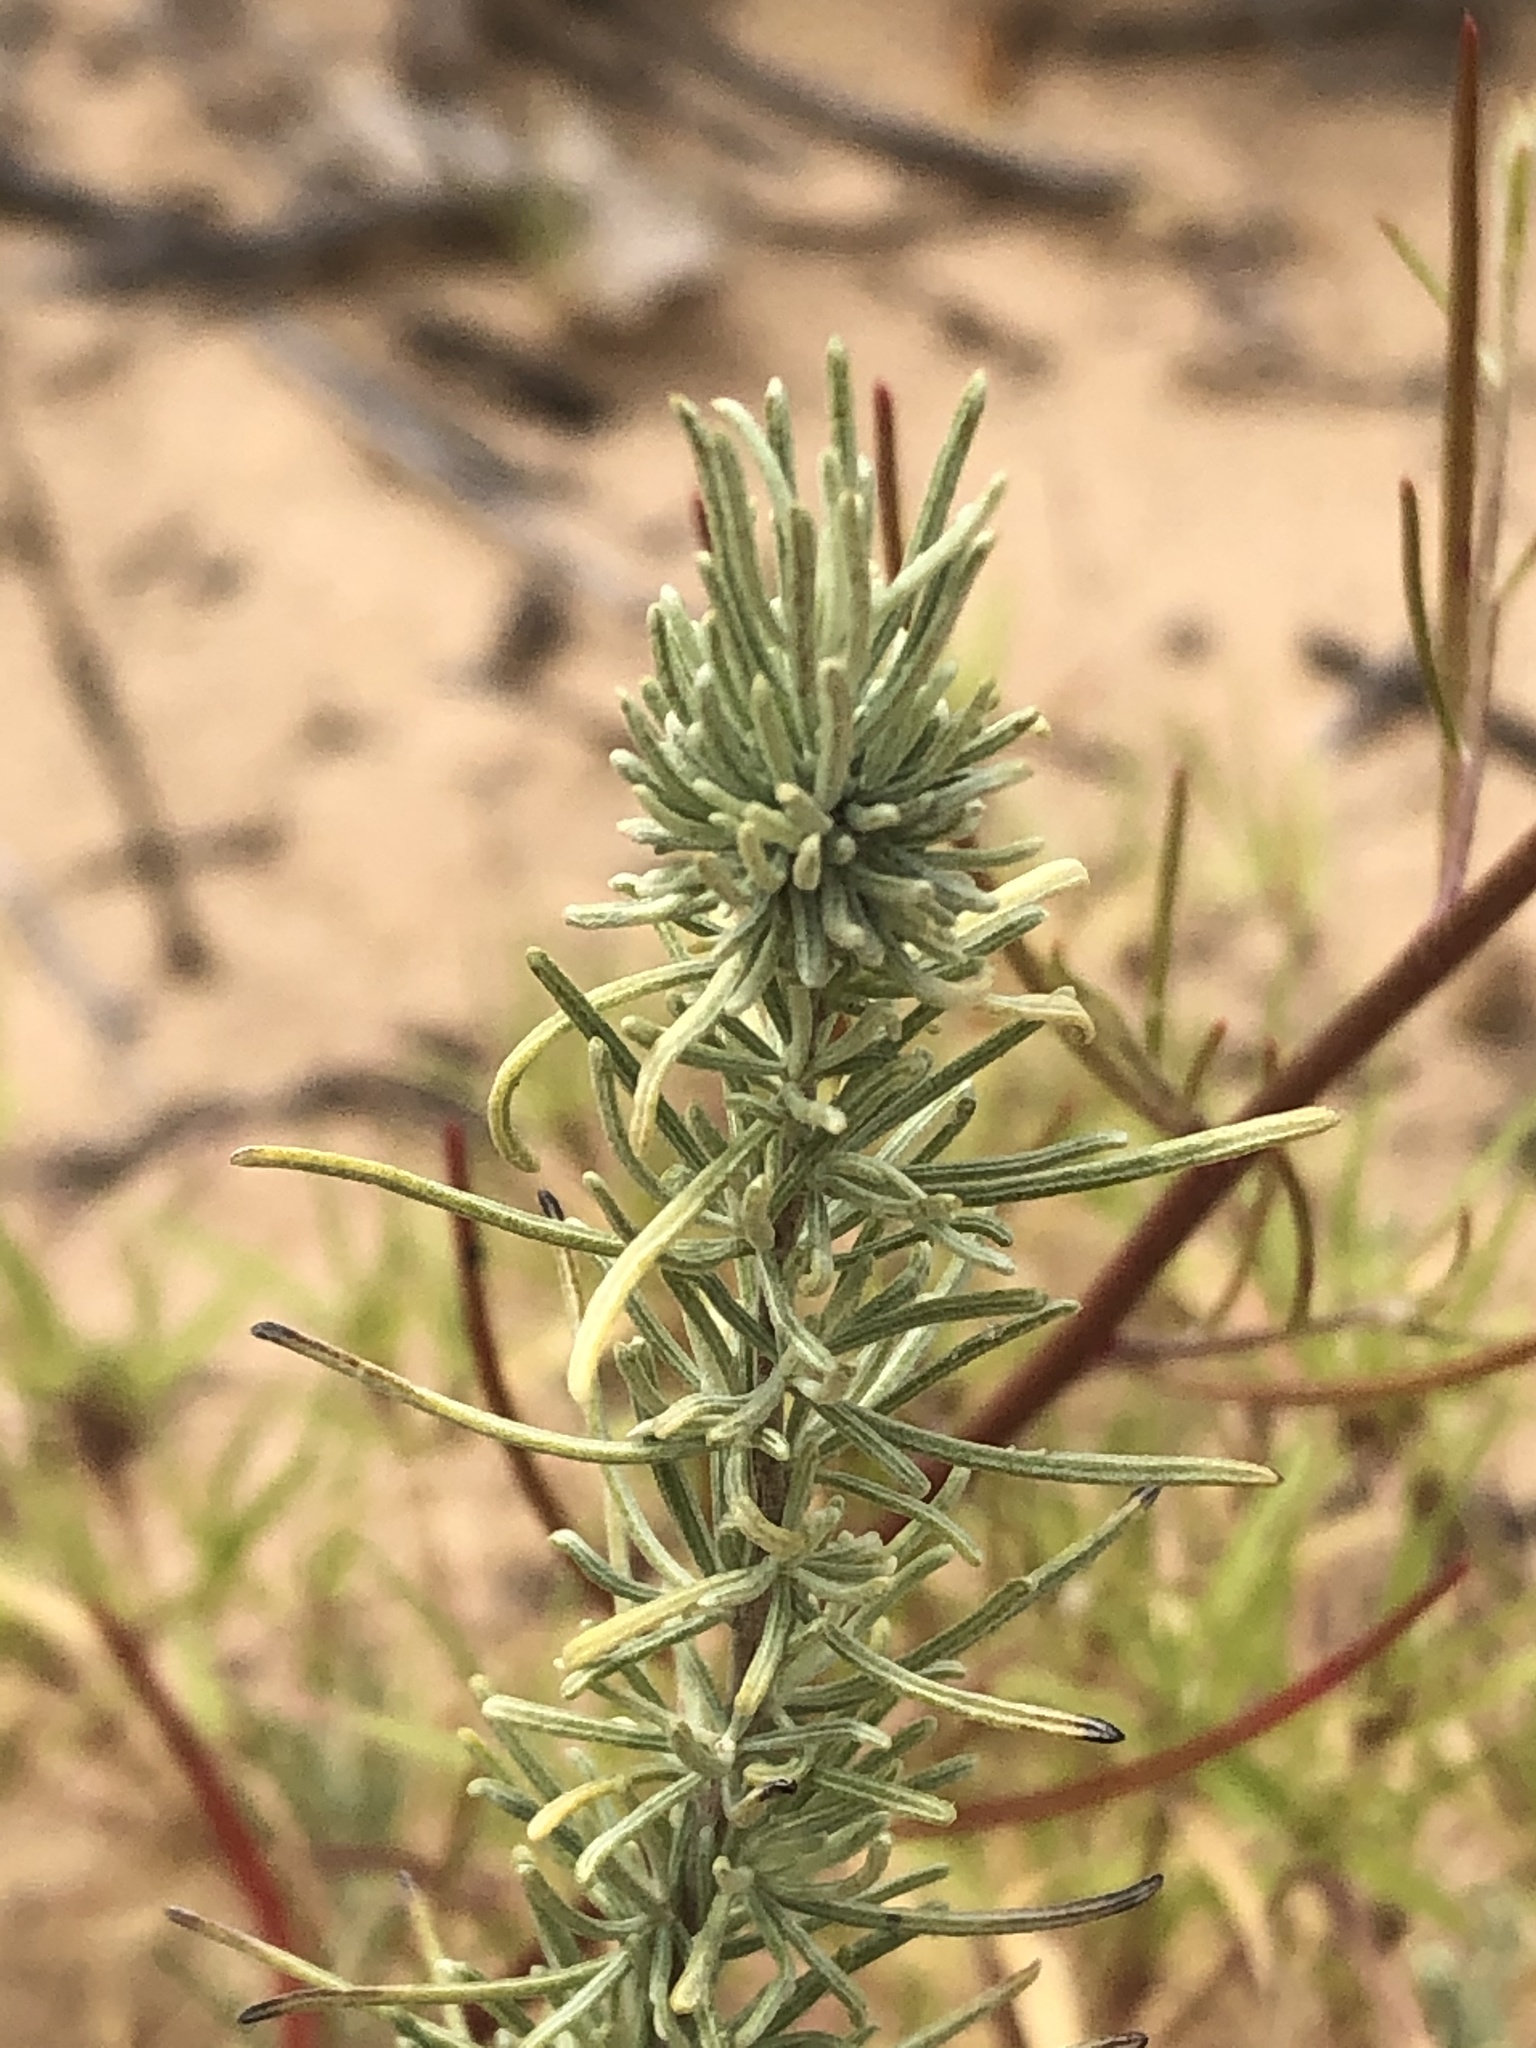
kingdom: Plantae
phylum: Tracheophyta
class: Magnoliopsida
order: Asterales
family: Asteraceae
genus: Artemisia
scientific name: Artemisia filifolia
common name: Sand-sage
